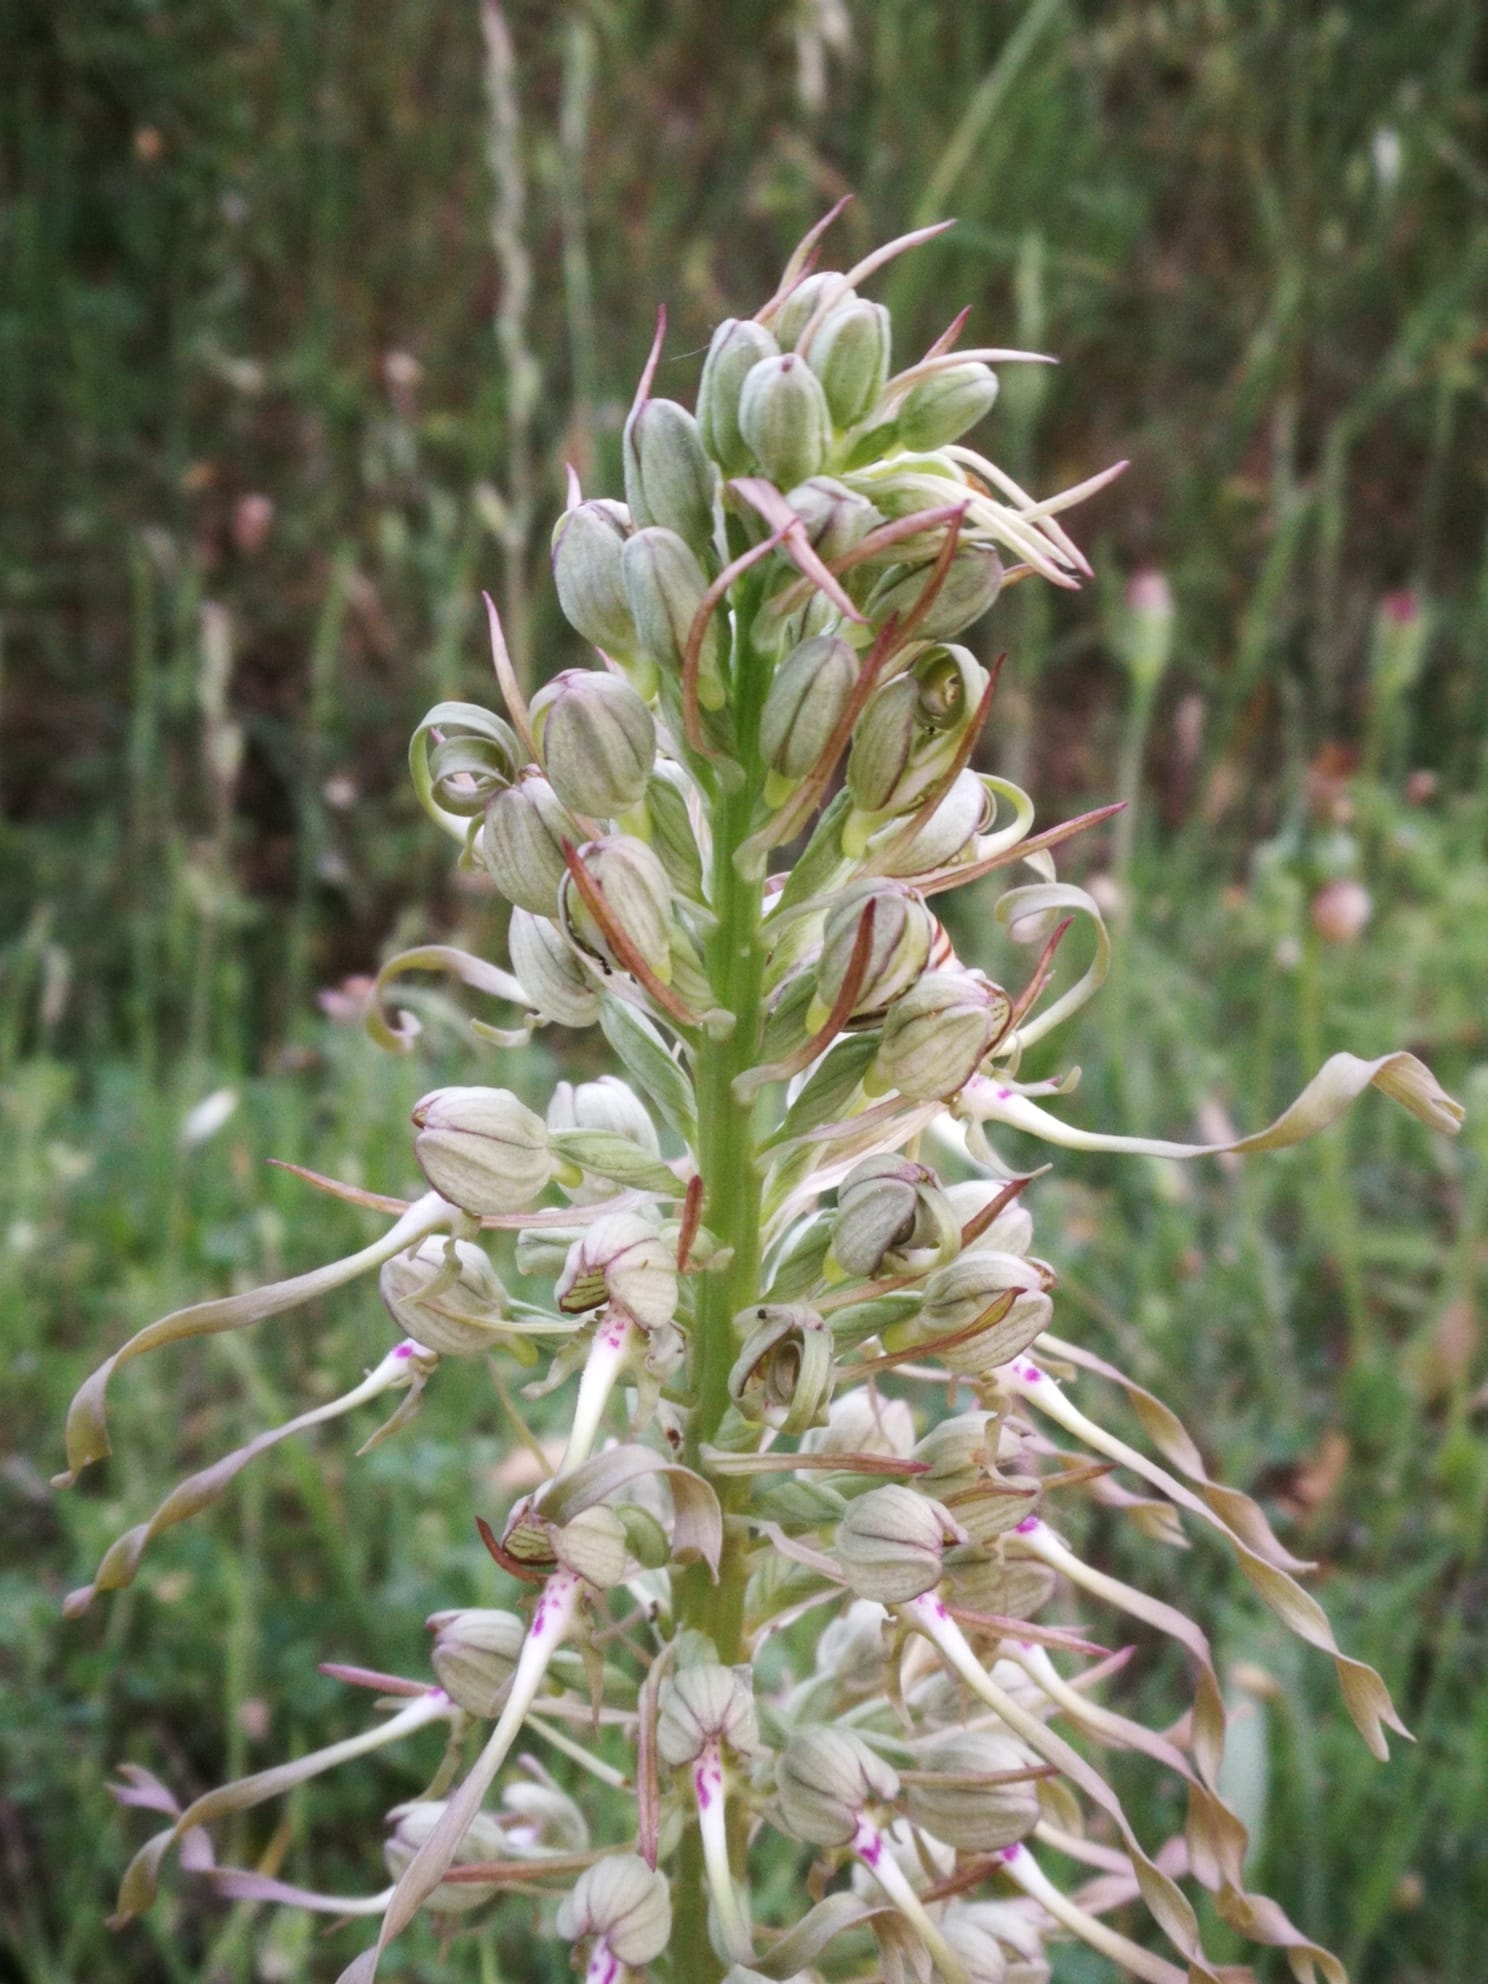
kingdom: Plantae
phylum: Tracheophyta
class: Liliopsida
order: Asparagales
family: Orchidaceae
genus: Himantoglossum
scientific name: Himantoglossum hircinum
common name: Lizard orchid
